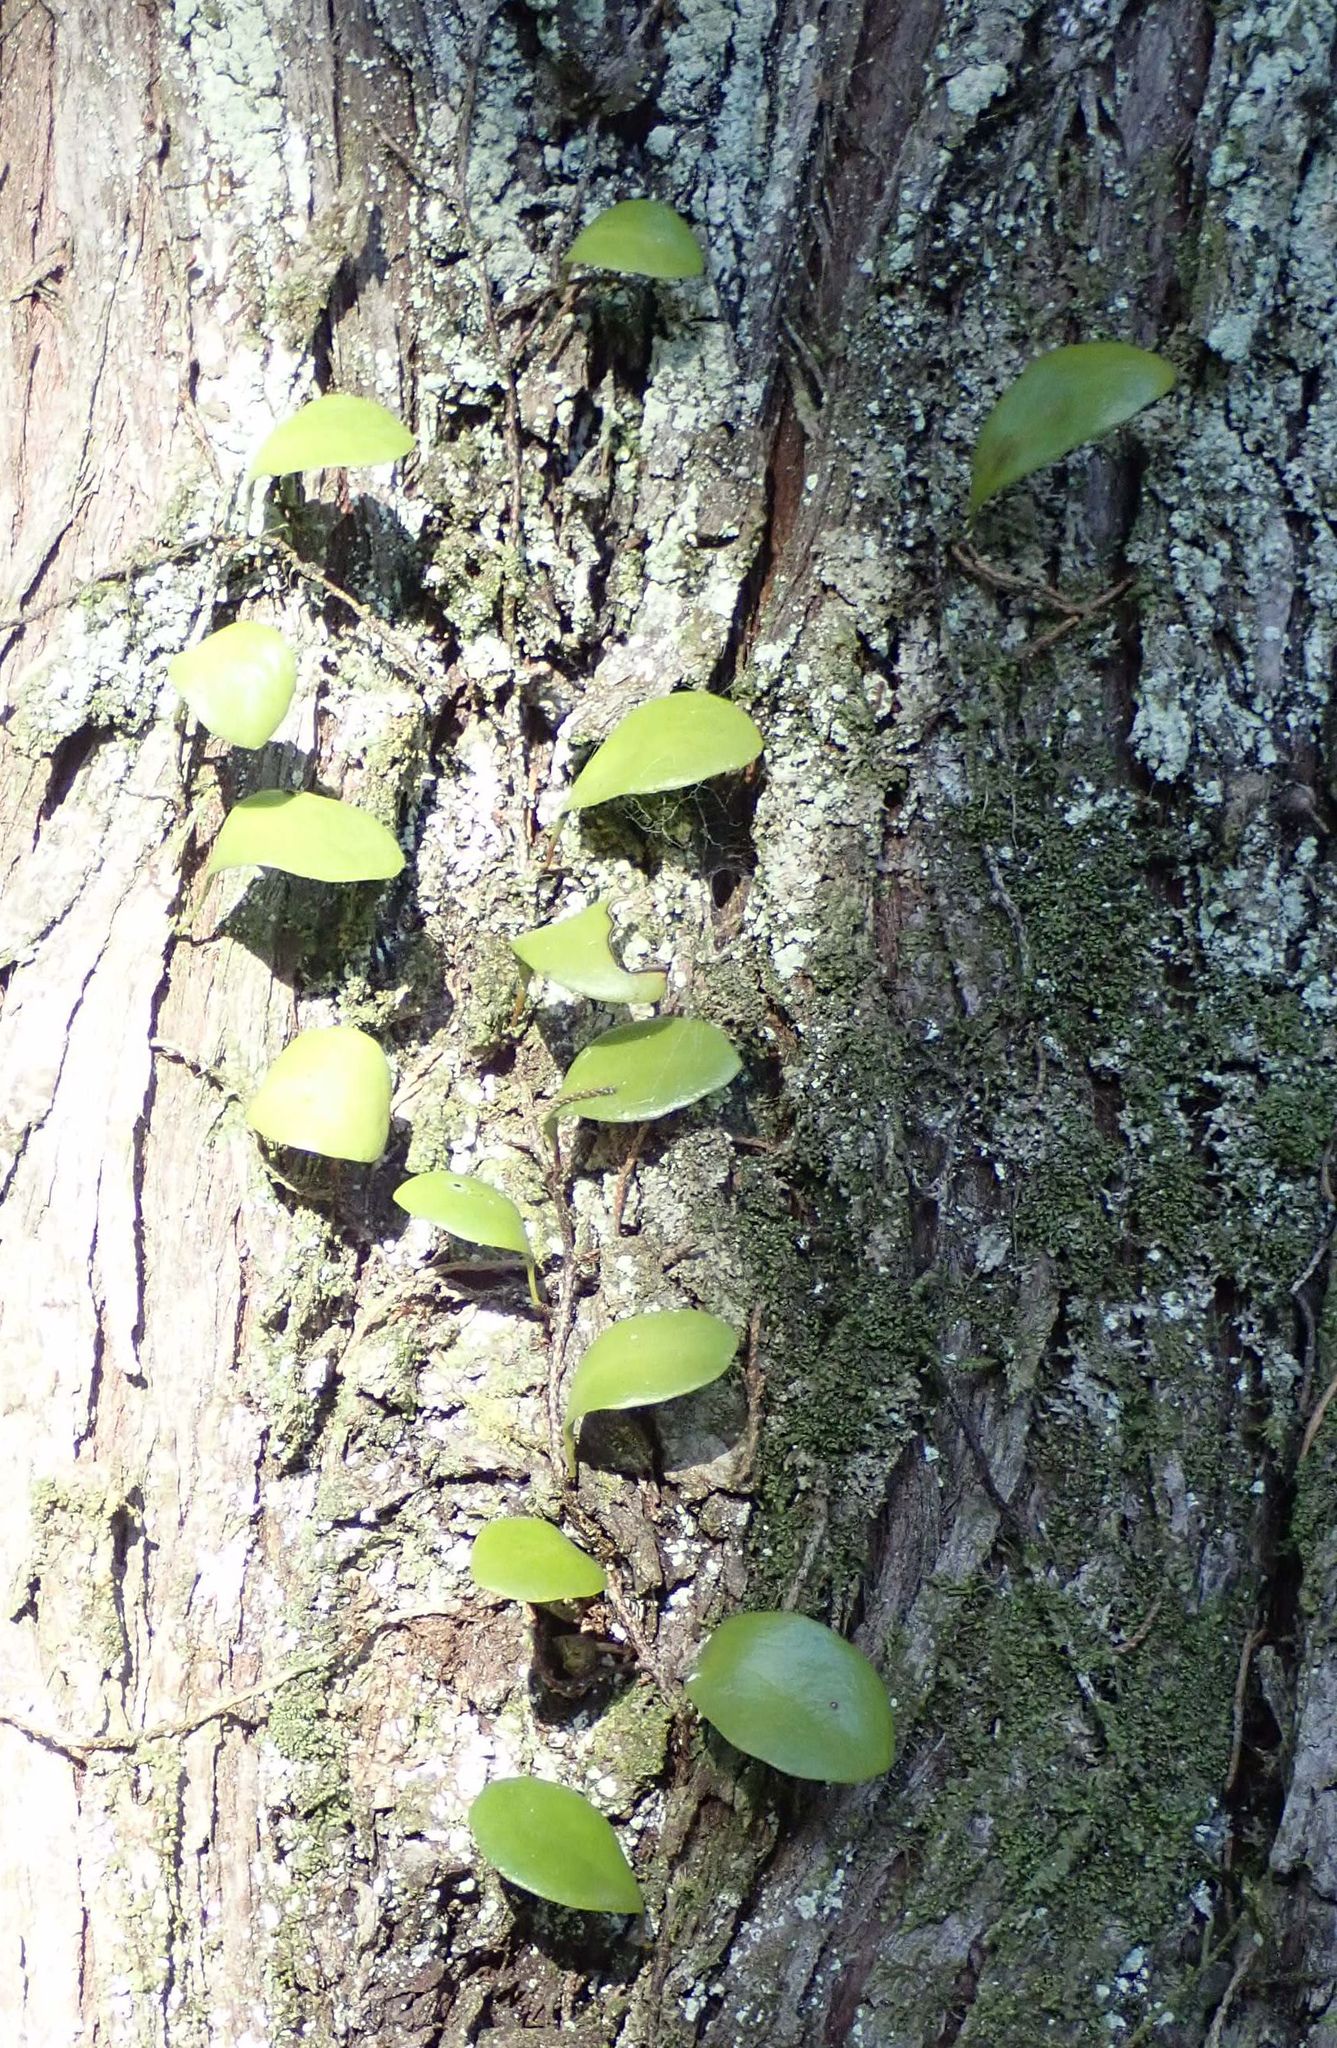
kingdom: Plantae
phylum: Tracheophyta
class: Polypodiopsida
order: Polypodiales
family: Polypodiaceae
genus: Pyrrosia
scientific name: Pyrrosia eleagnifolia
